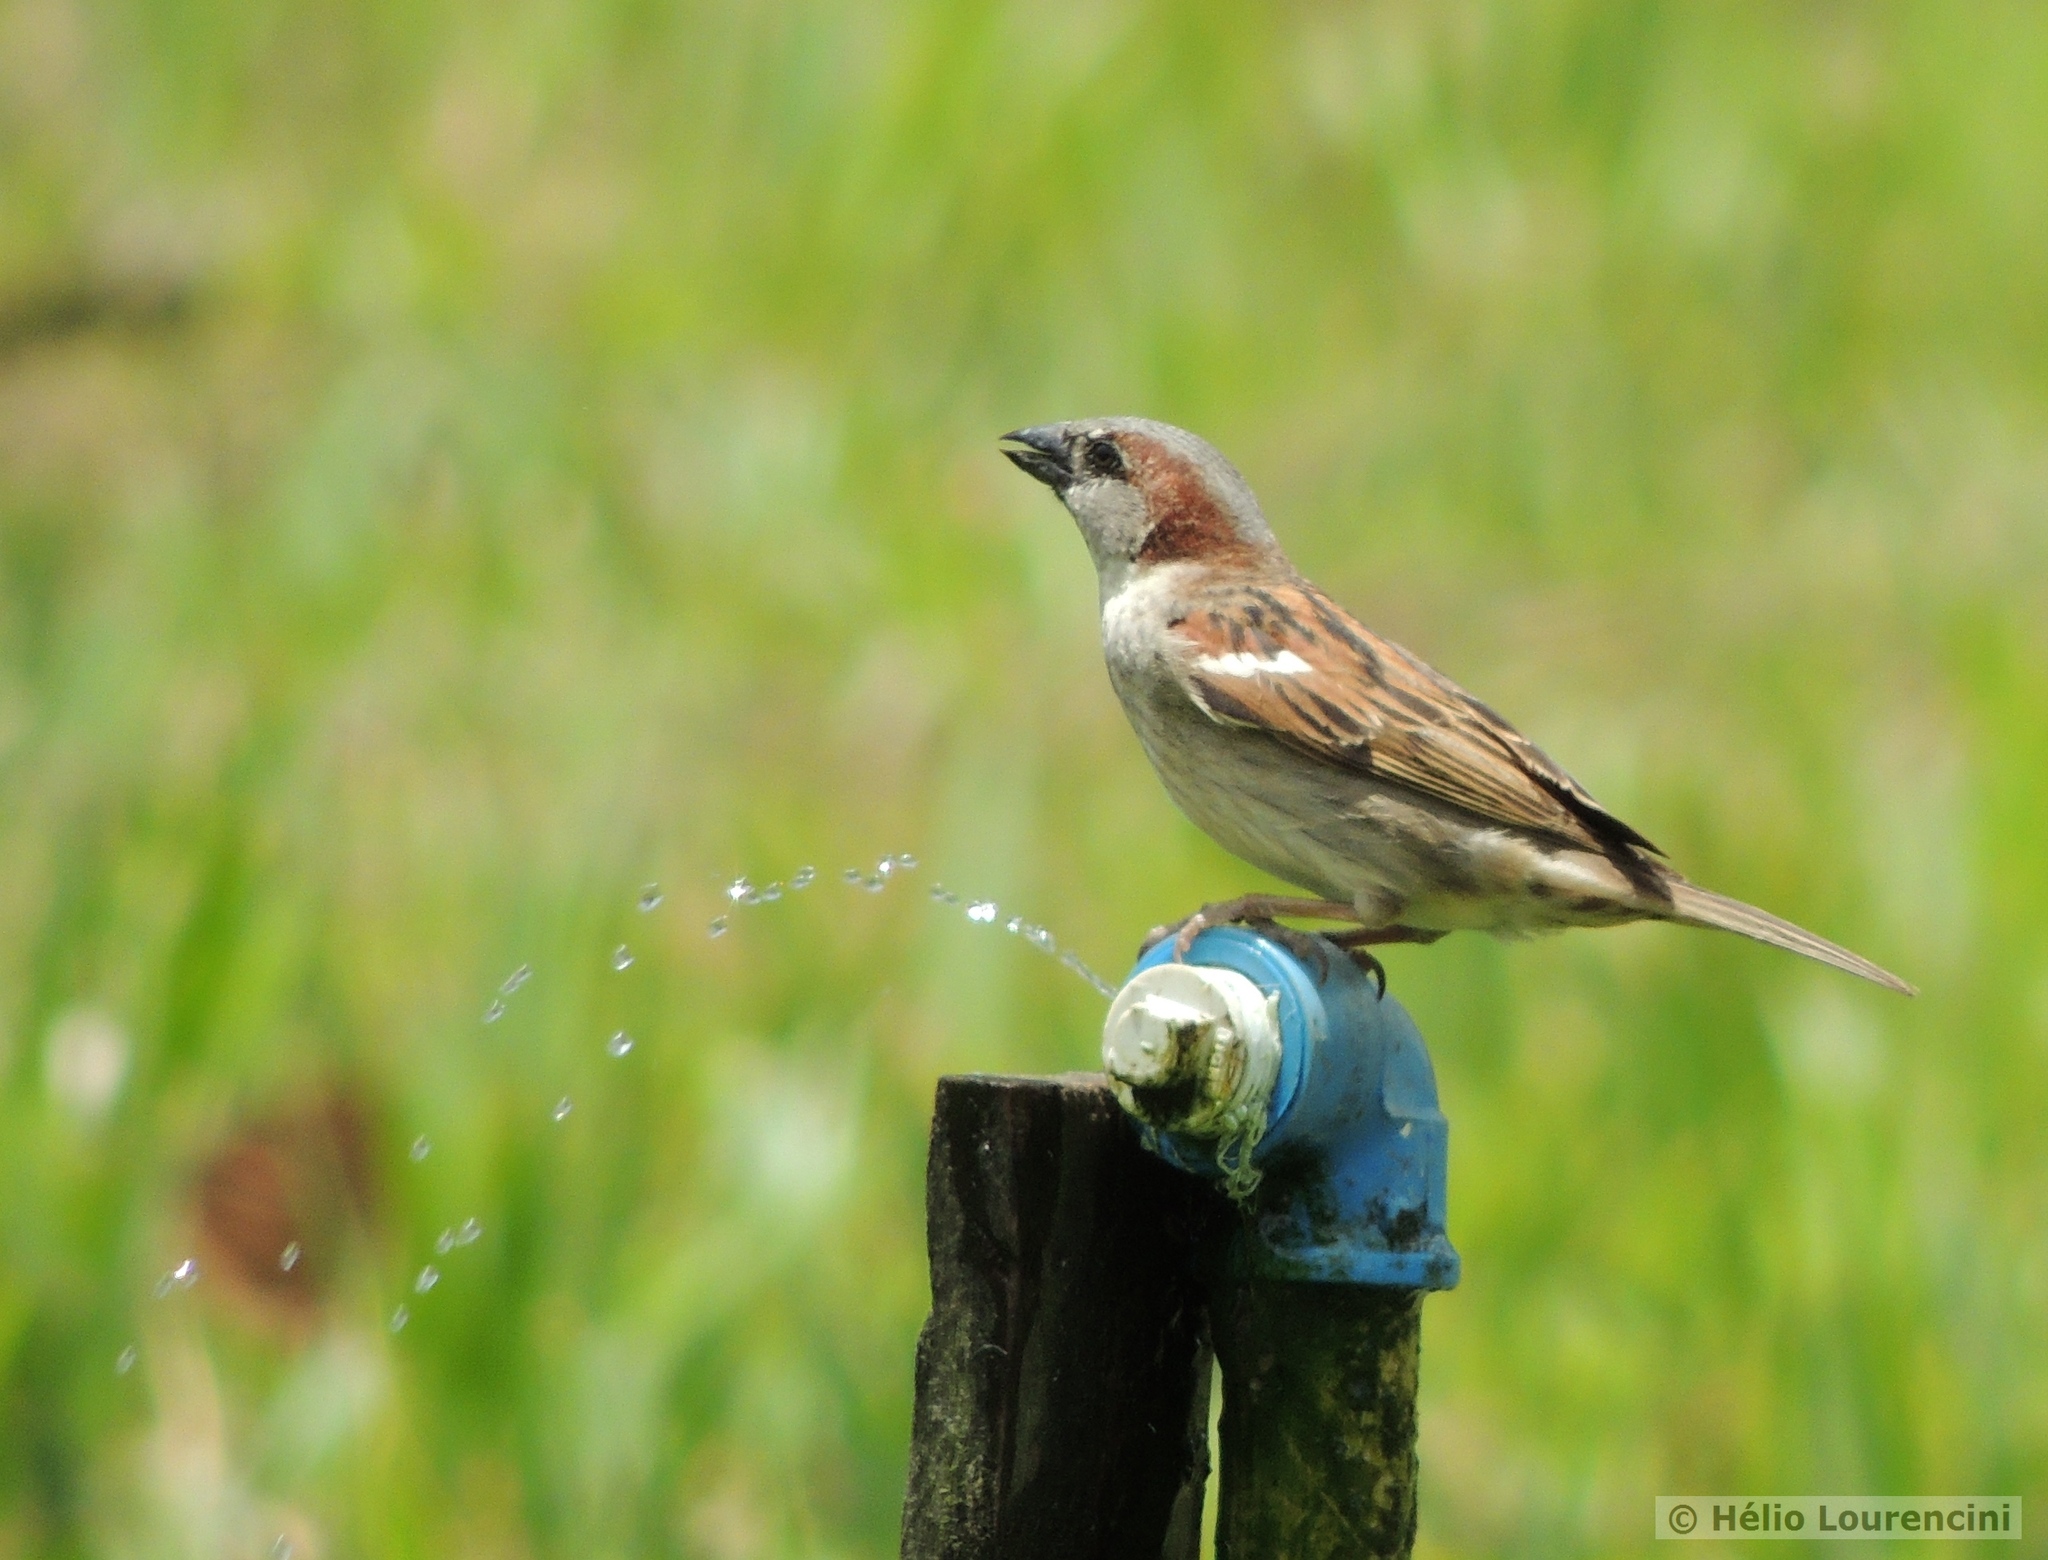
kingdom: Animalia
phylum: Chordata
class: Aves
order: Passeriformes
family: Passeridae
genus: Passer
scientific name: Passer domesticus
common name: House sparrow
